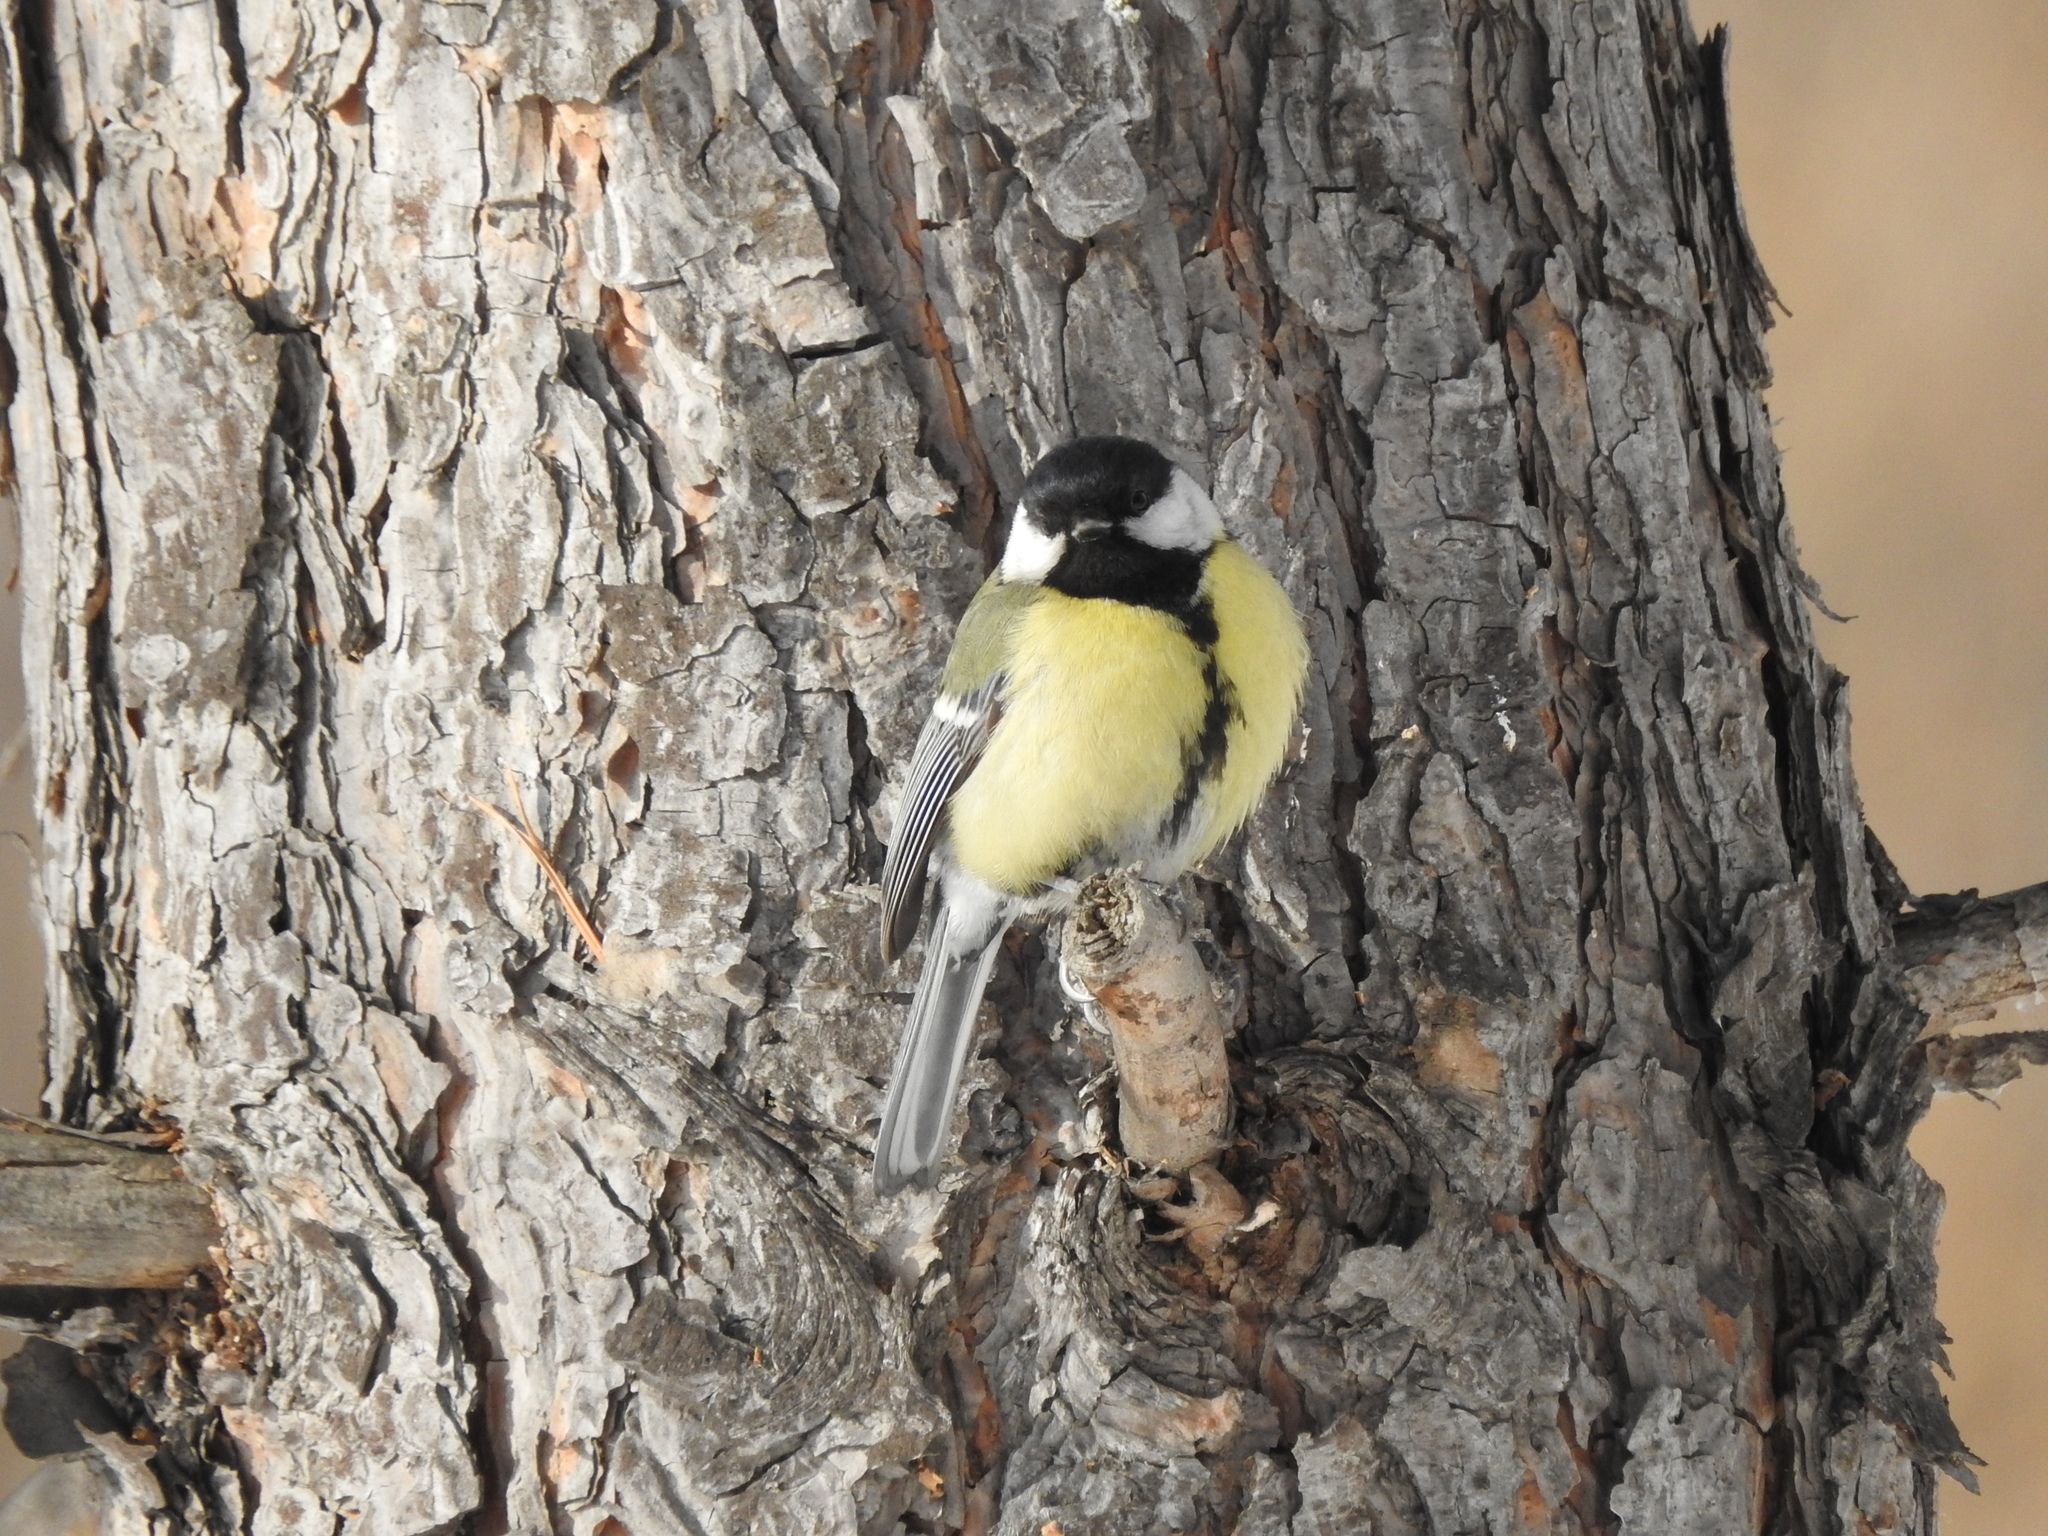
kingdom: Animalia
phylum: Chordata
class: Aves
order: Passeriformes
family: Paridae
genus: Parus
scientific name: Parus major
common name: Great tit
